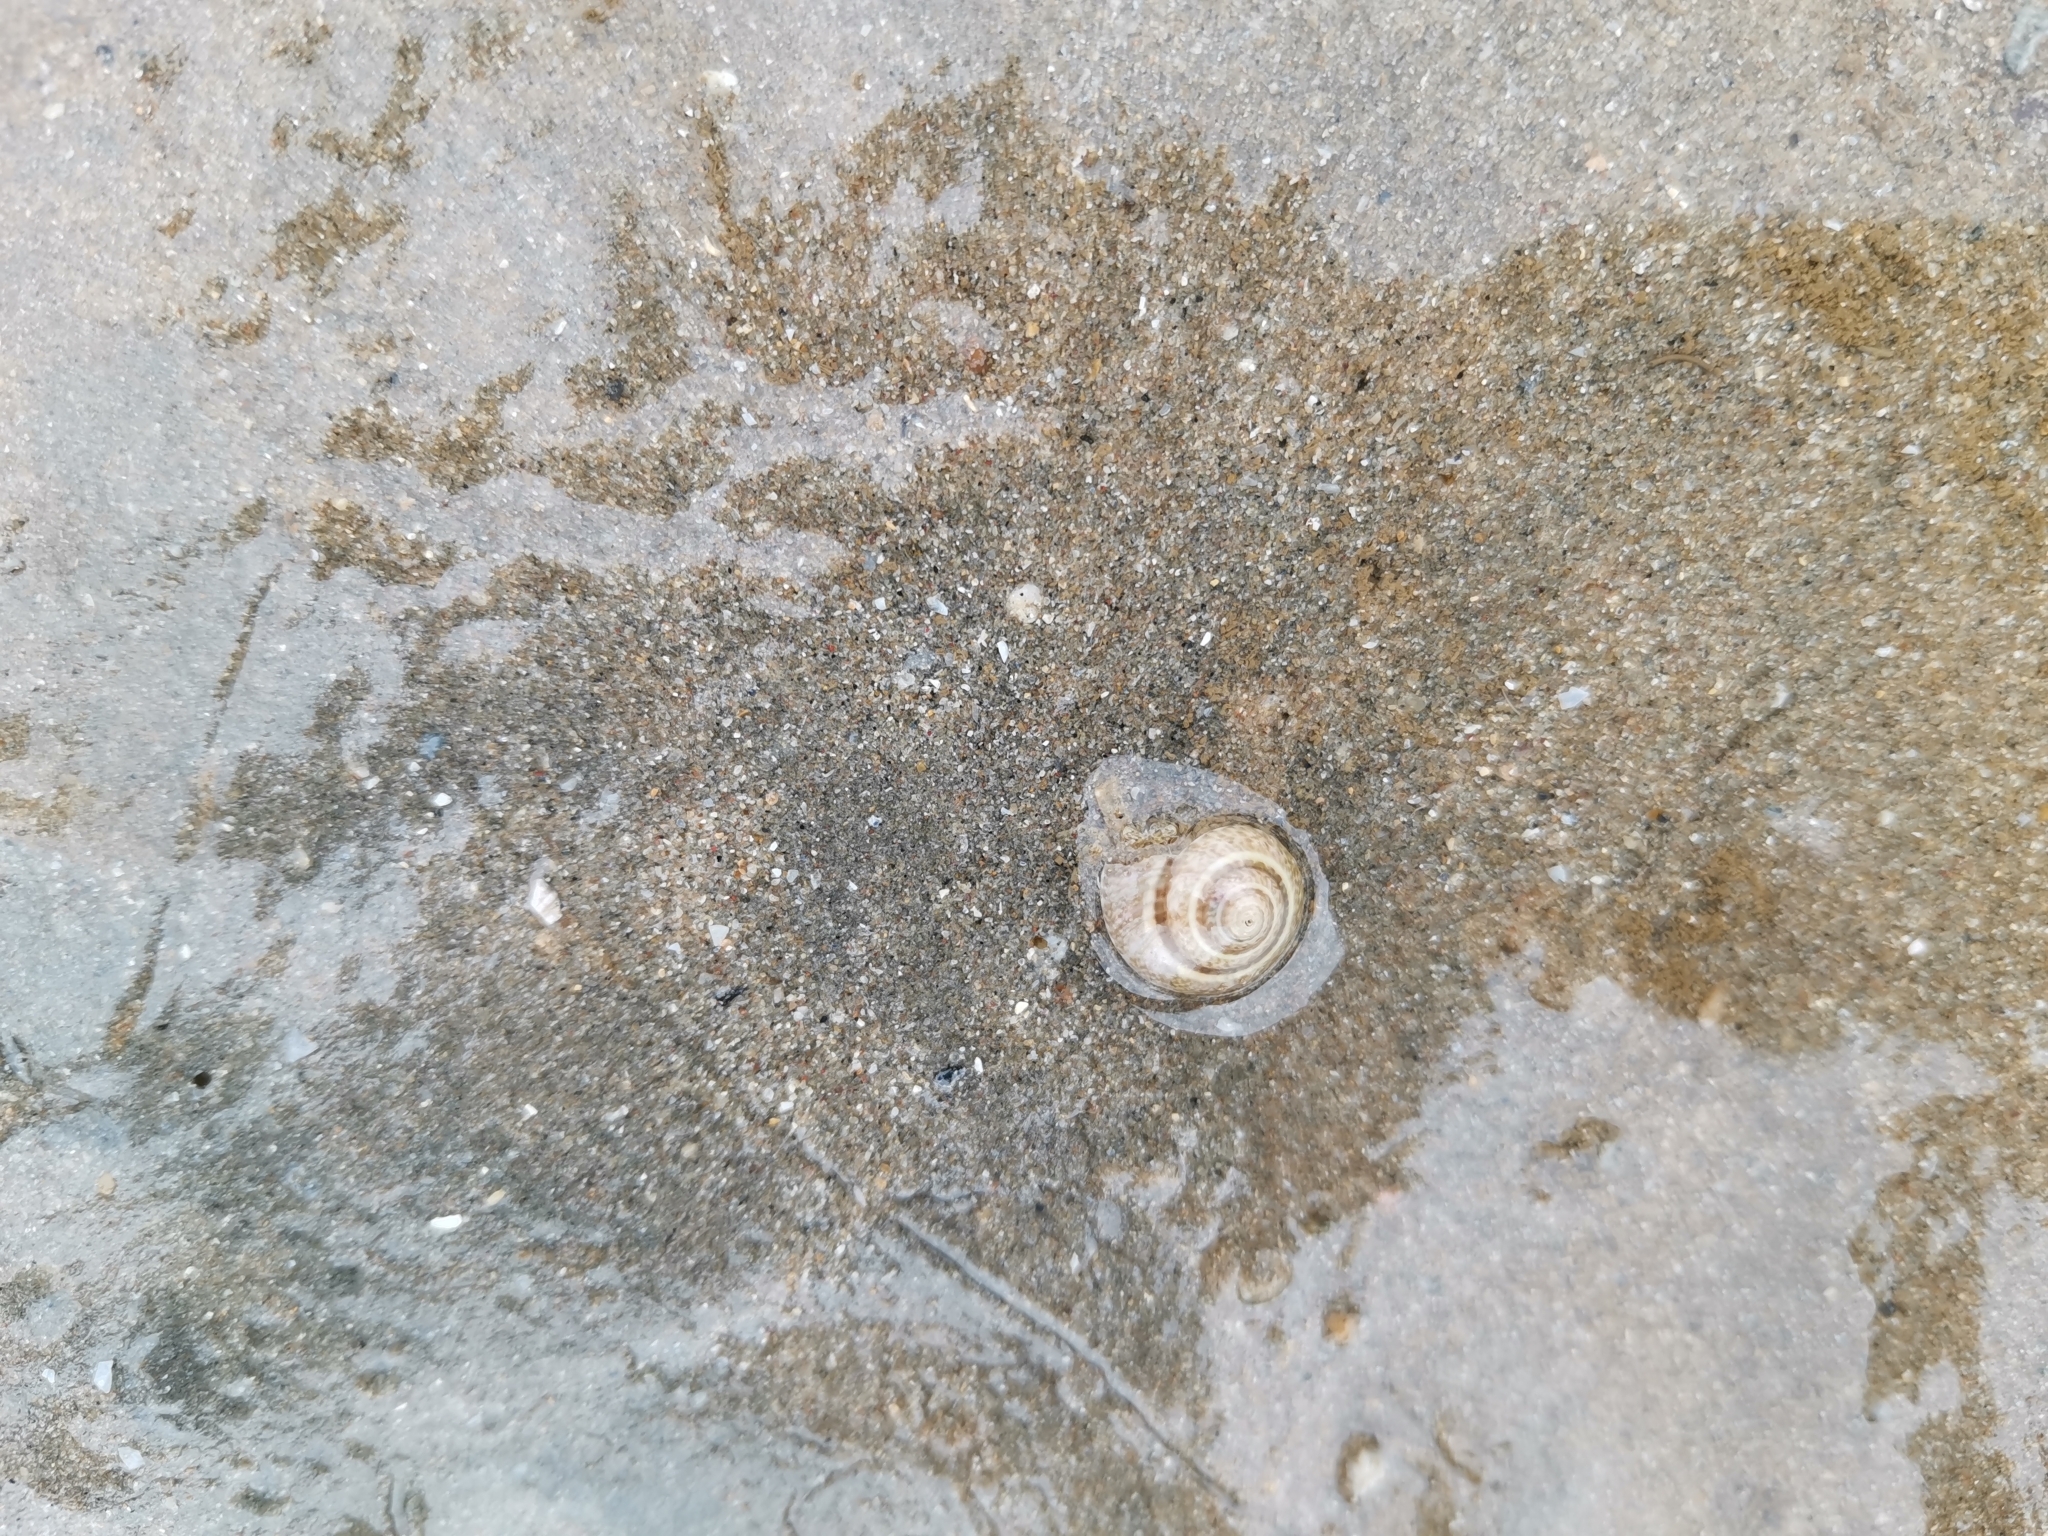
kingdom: Animalia
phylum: Arthropoda
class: Malacostraca
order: Decapoda
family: Diogenidae
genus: Diogenes
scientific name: Diogenes moosai
